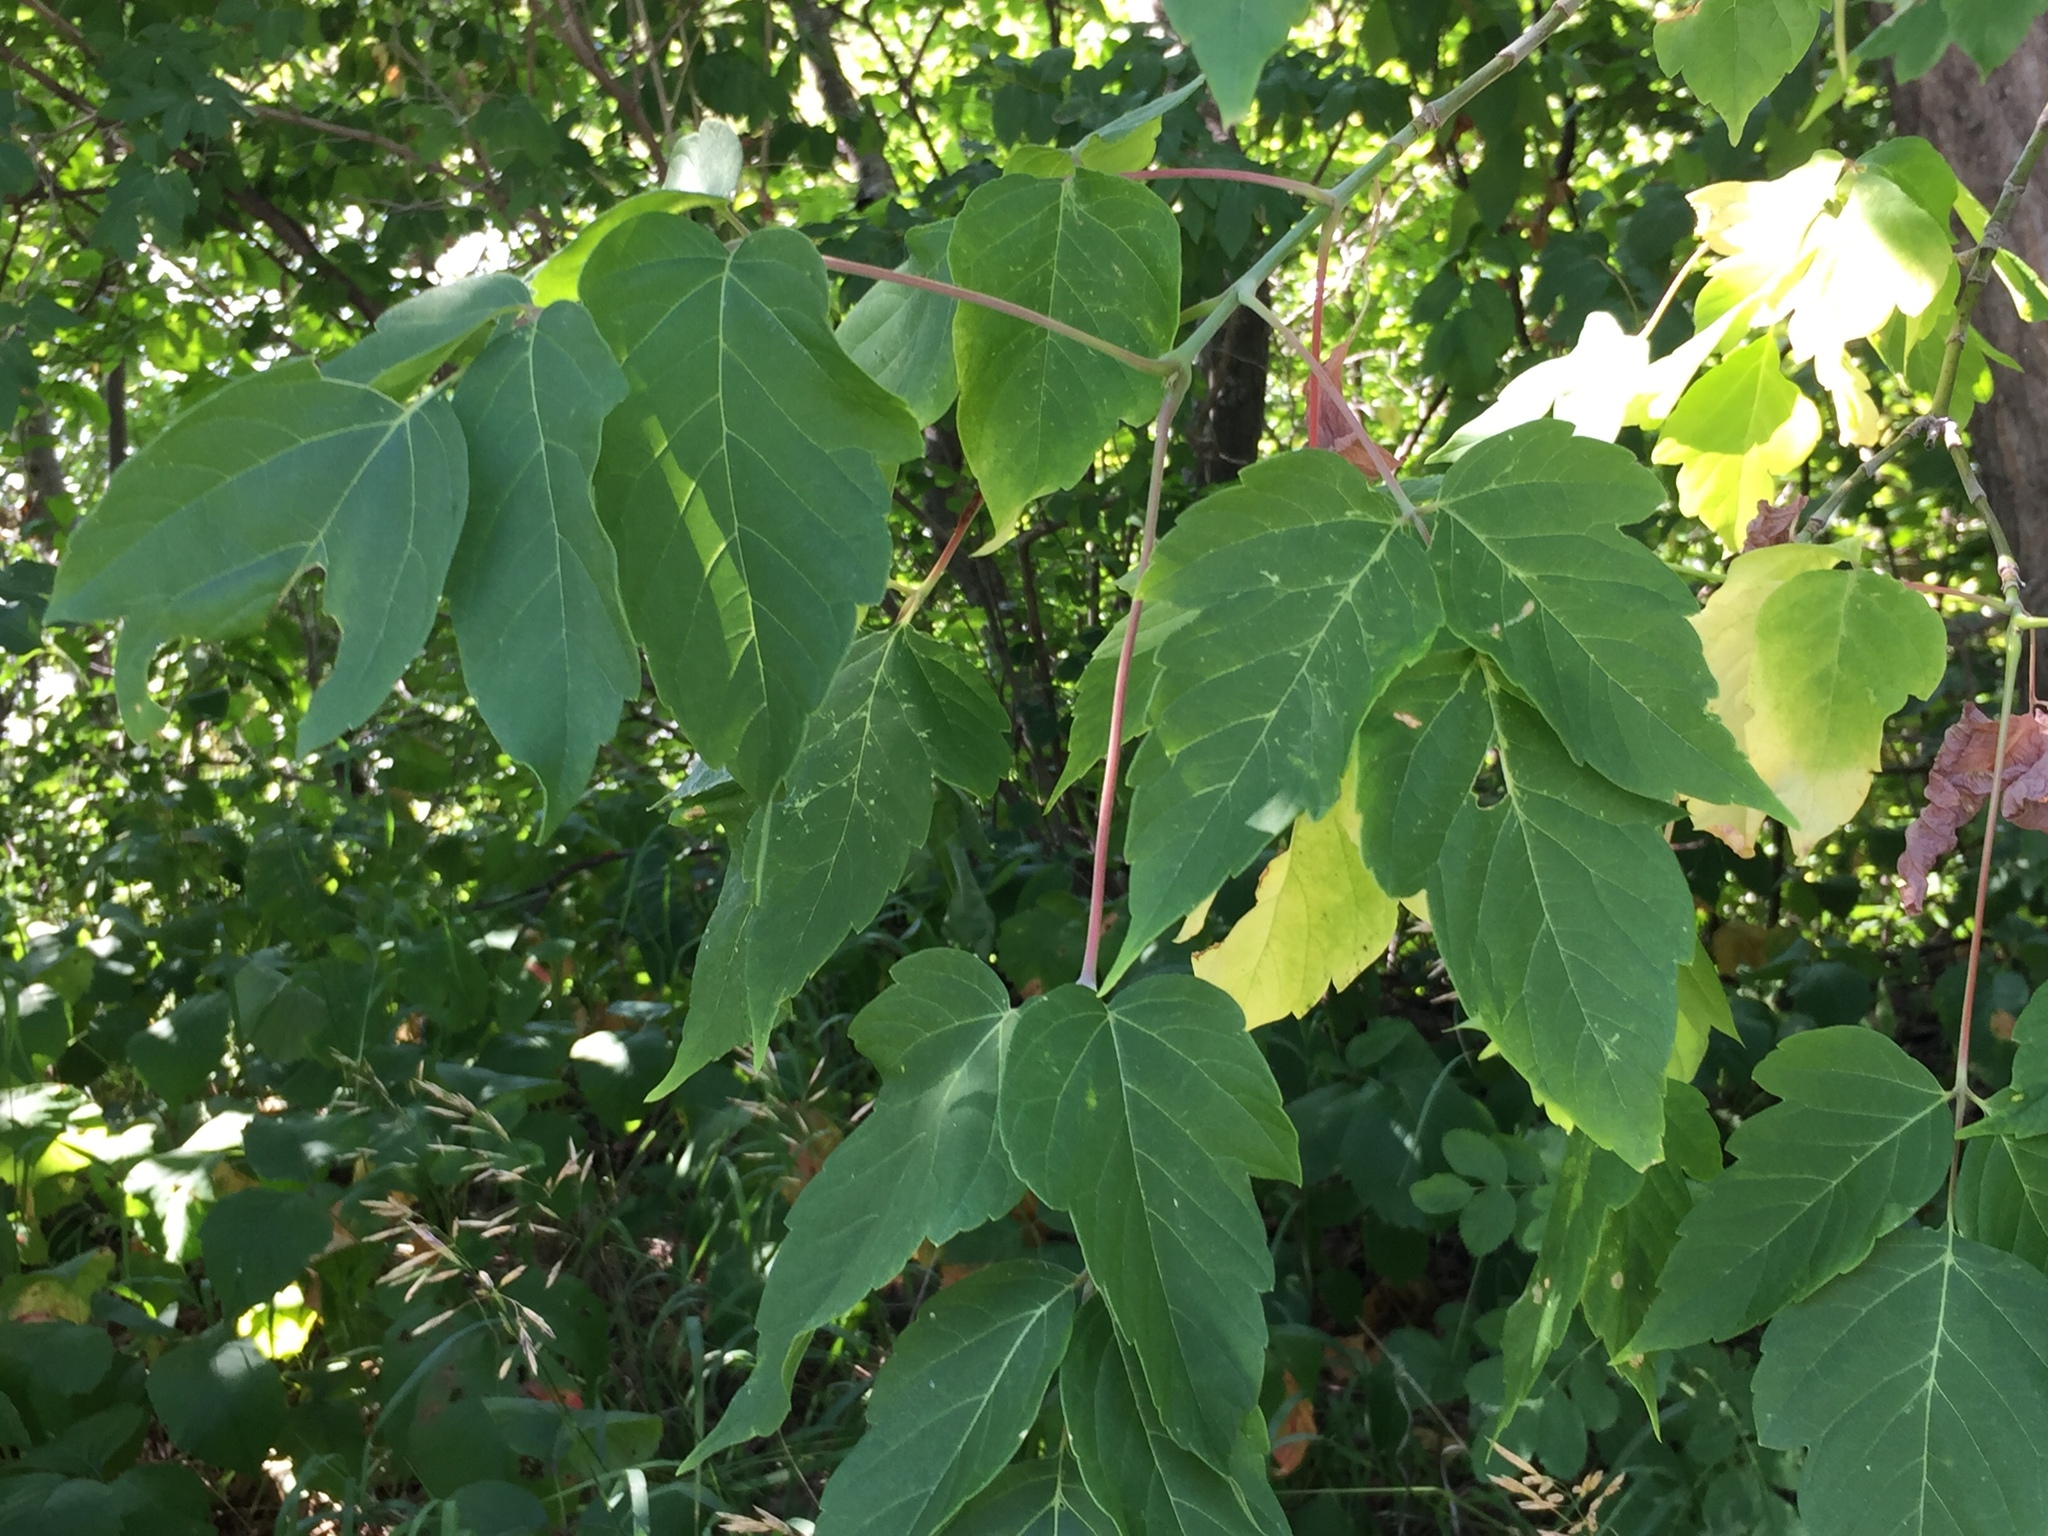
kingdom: Plantae
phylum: Tracheophyta
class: Magnoliopsida
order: Sapindales
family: Sapindaceae
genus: Acer
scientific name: Acer negundo
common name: Ashleaf maple
